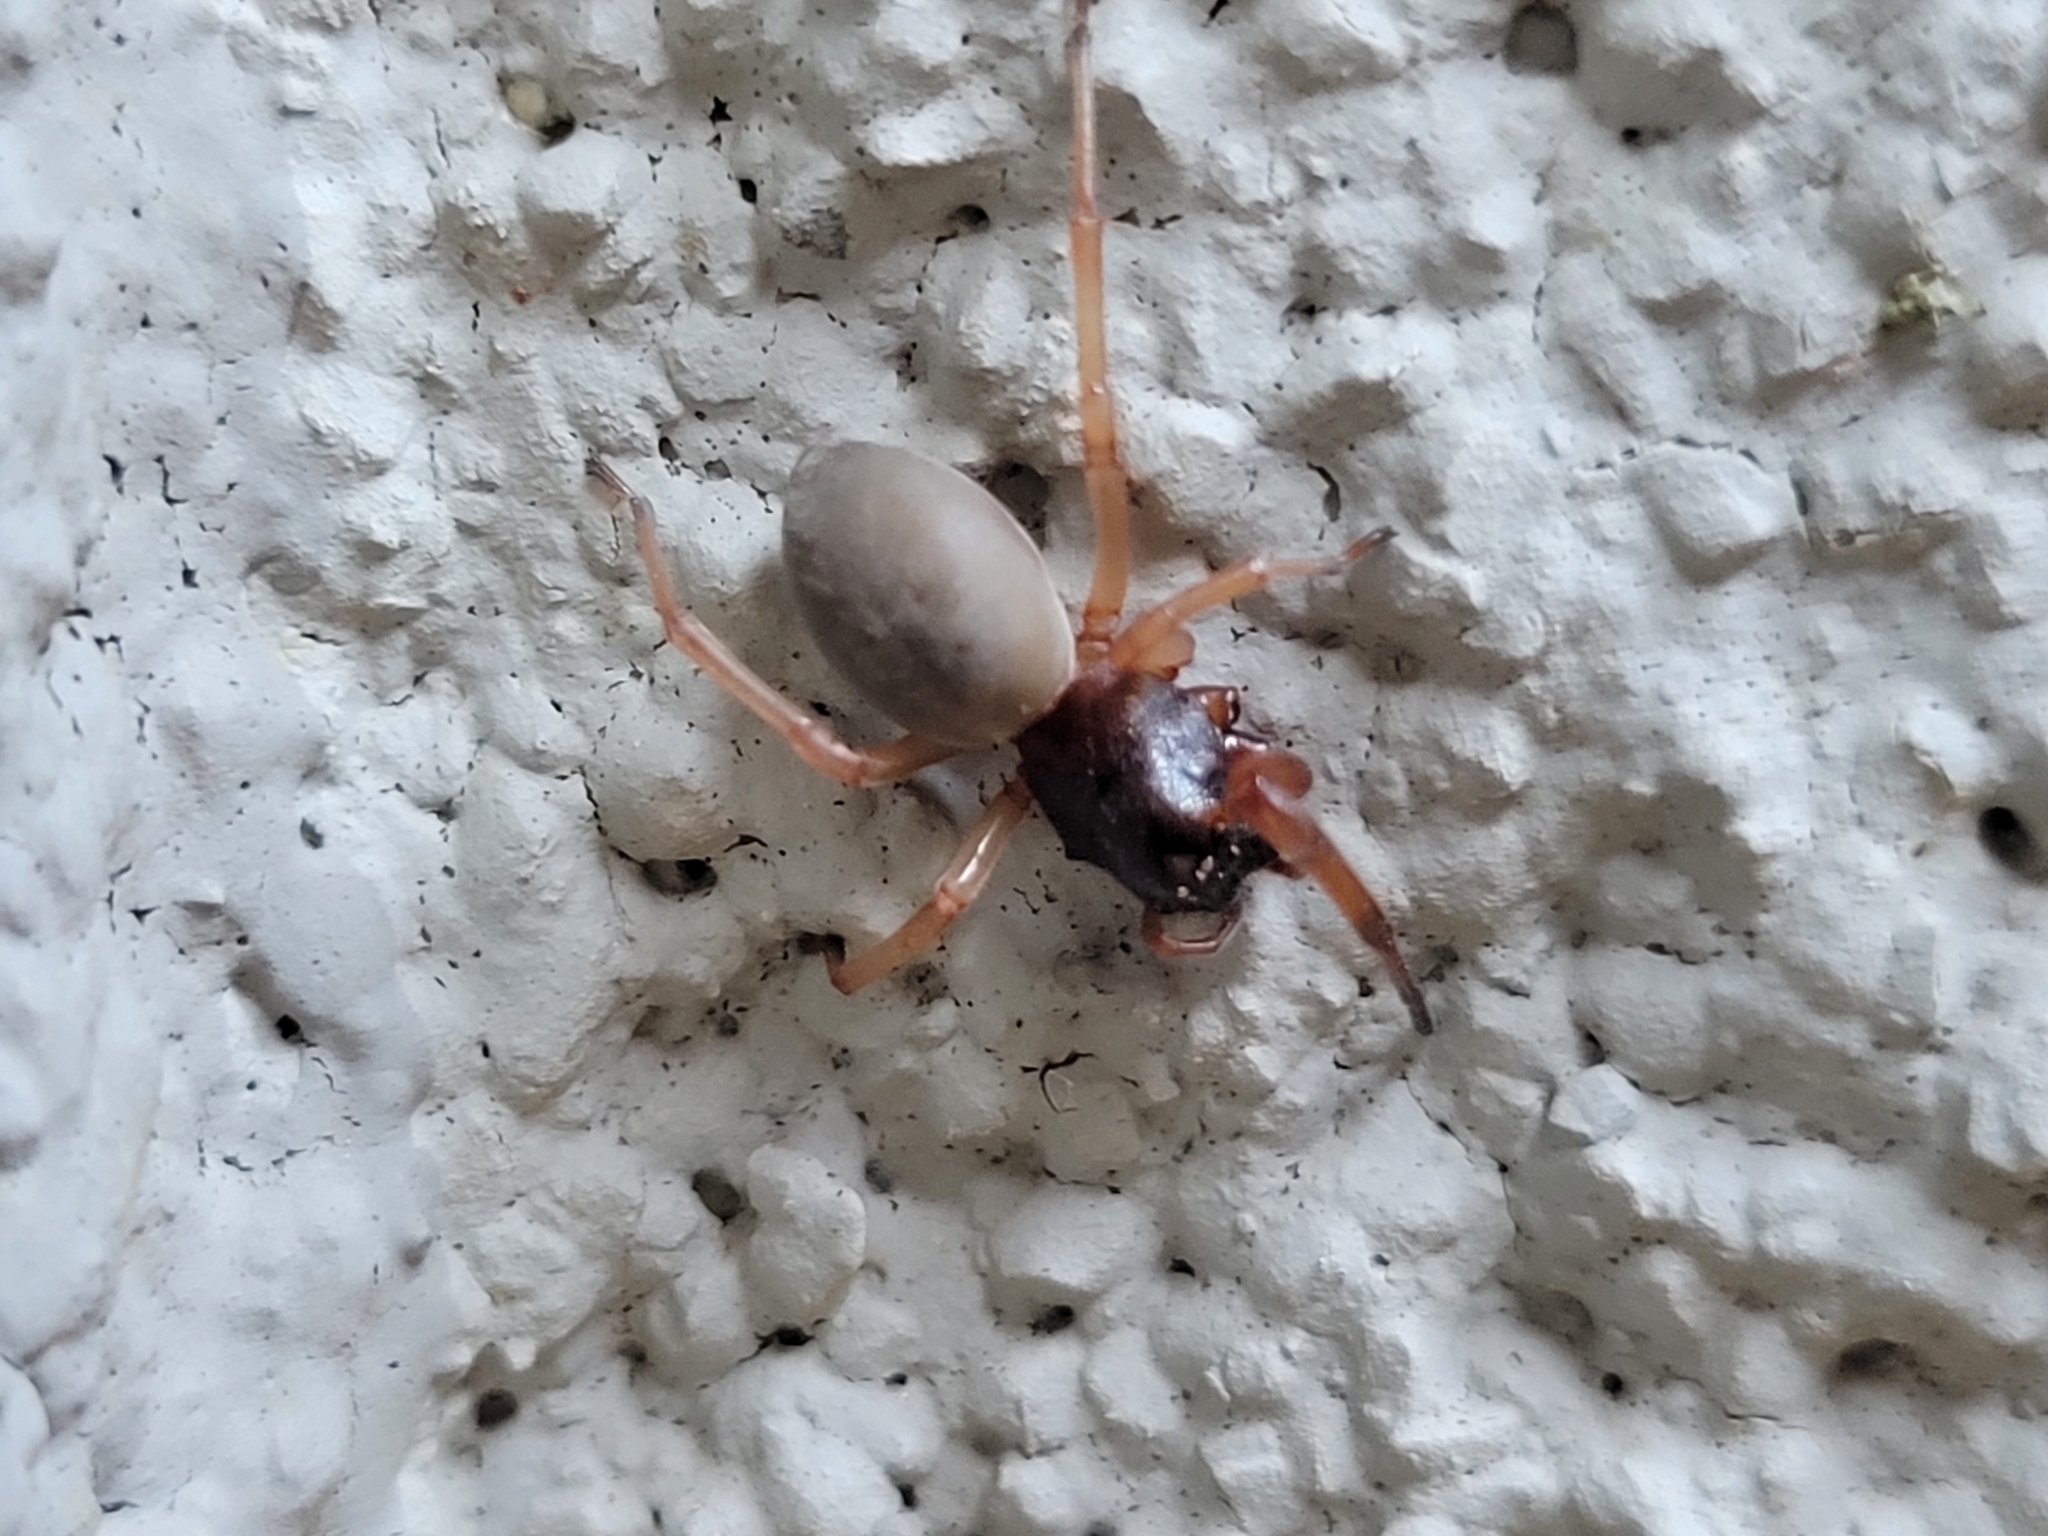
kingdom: Animalia
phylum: Arthropoda
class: Arachnida
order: Araneae
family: Trachelidae
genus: Trachelas
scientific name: Trachelas tranquillus
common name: Broad-faced sac spider
